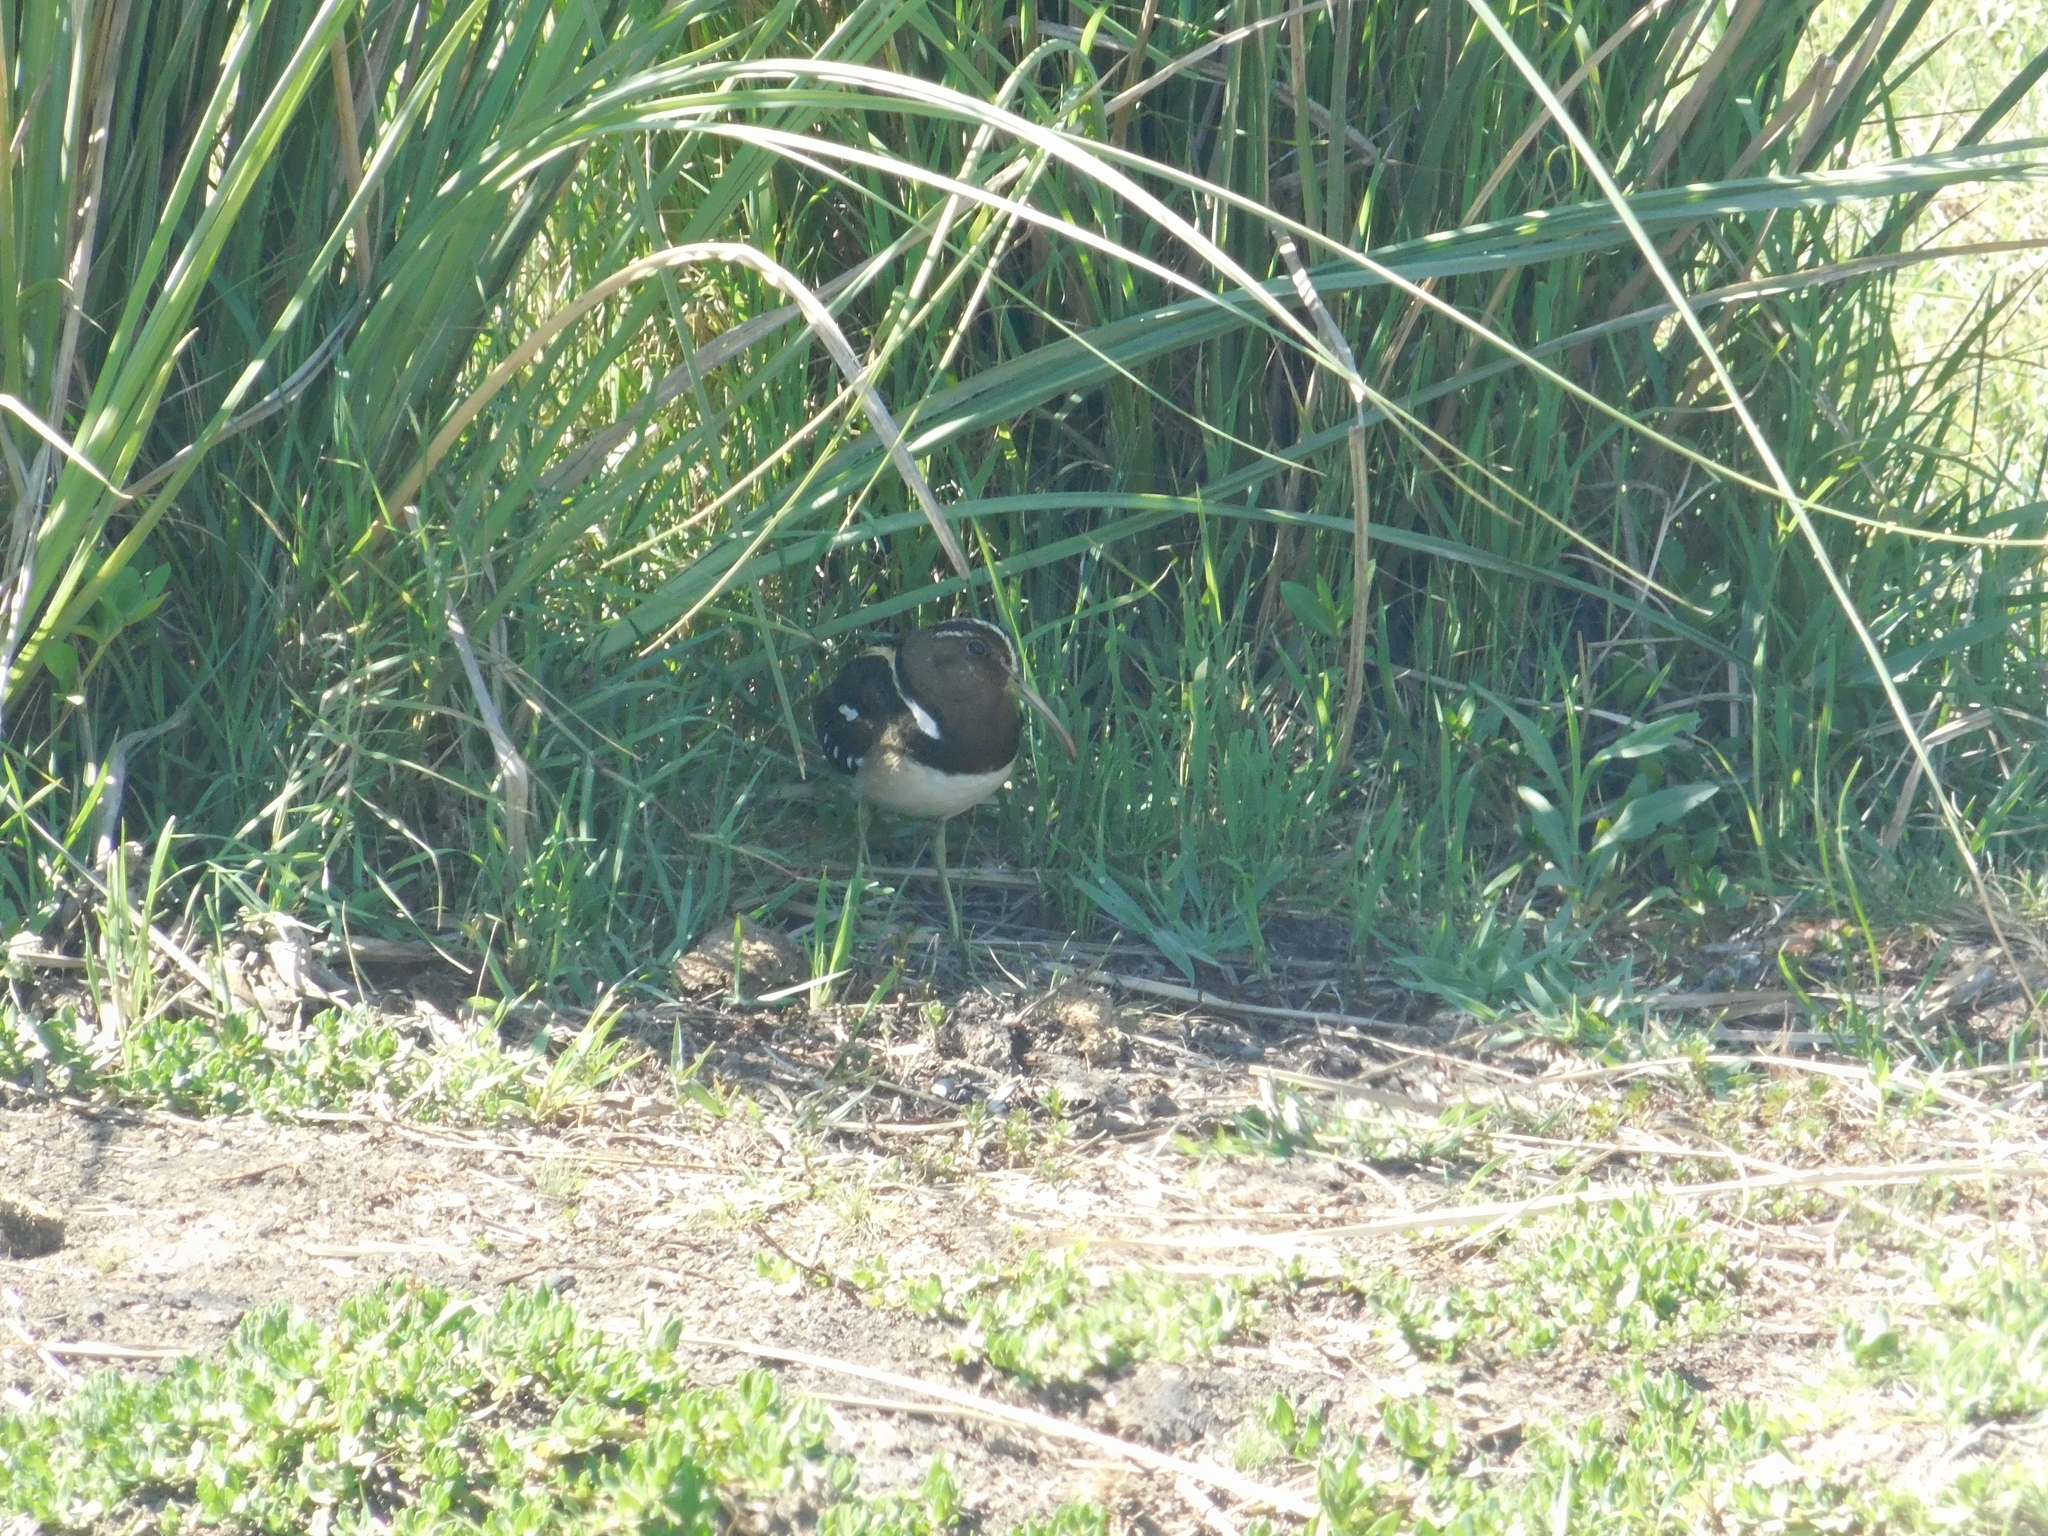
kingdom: Animalia
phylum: Chordata
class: Aves
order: Charadriiformes
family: Rostratulidae
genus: Nycticryphes
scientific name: Nycticryphes semicollaris
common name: South american painted-snipe
